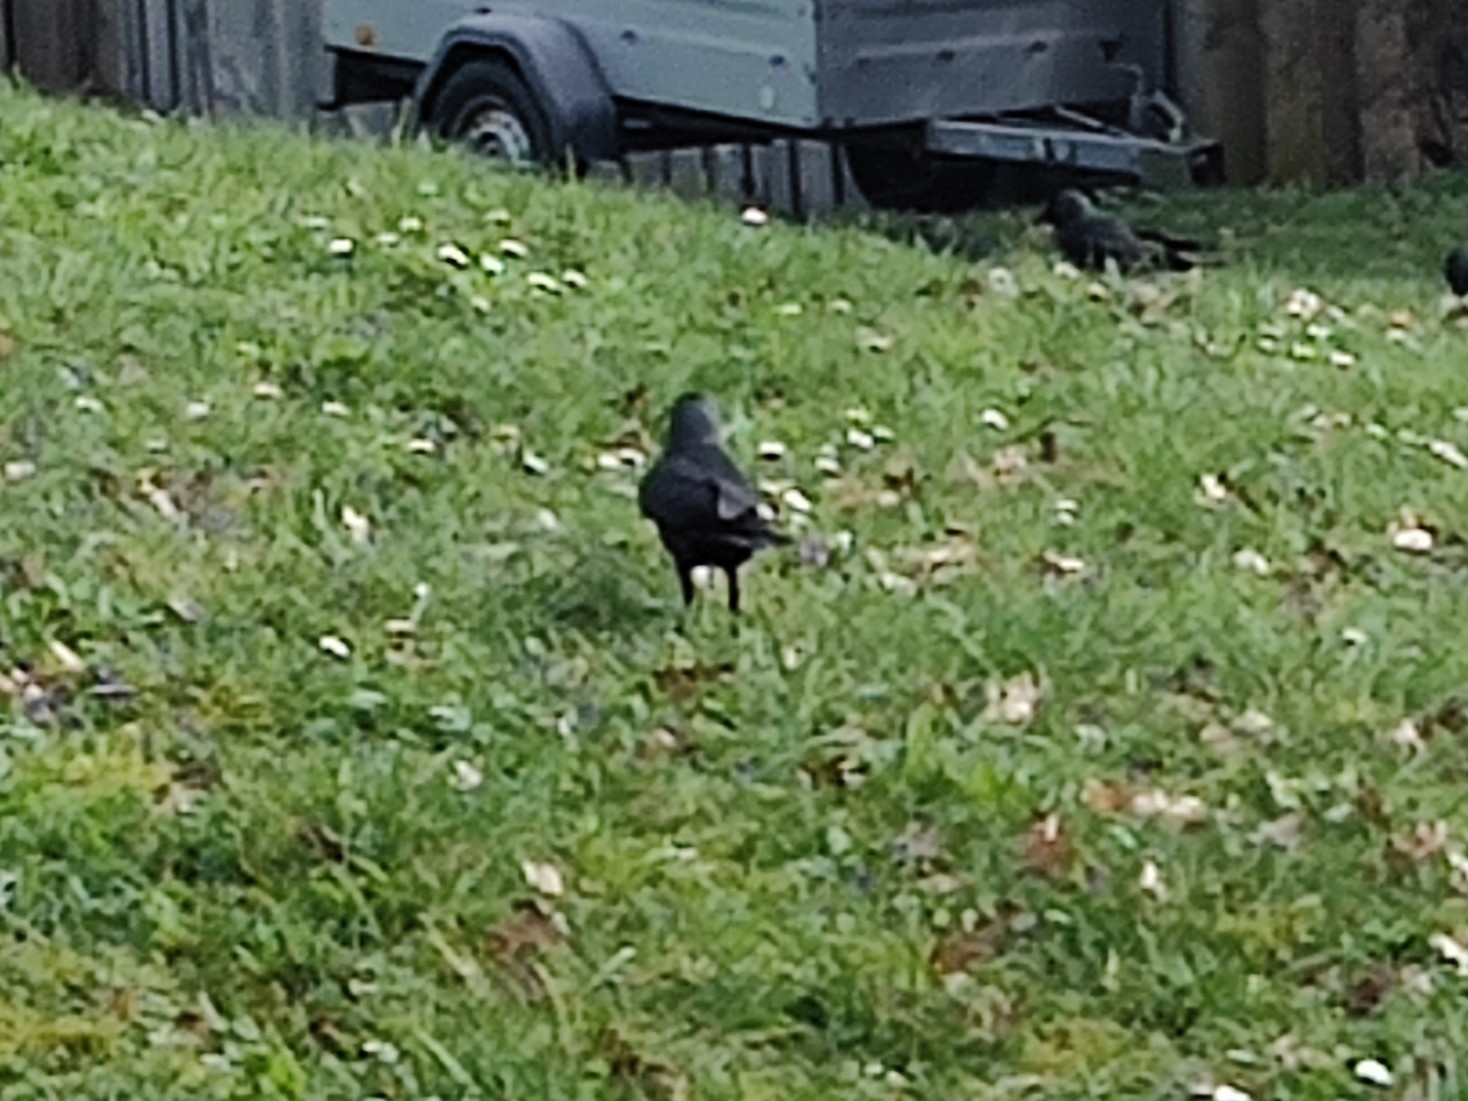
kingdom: Animalia
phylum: Chordata
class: Aves
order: Passeriformes
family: Corvidae
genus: Coloeus
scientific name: Coloeus monedula
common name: Western jackdaw
